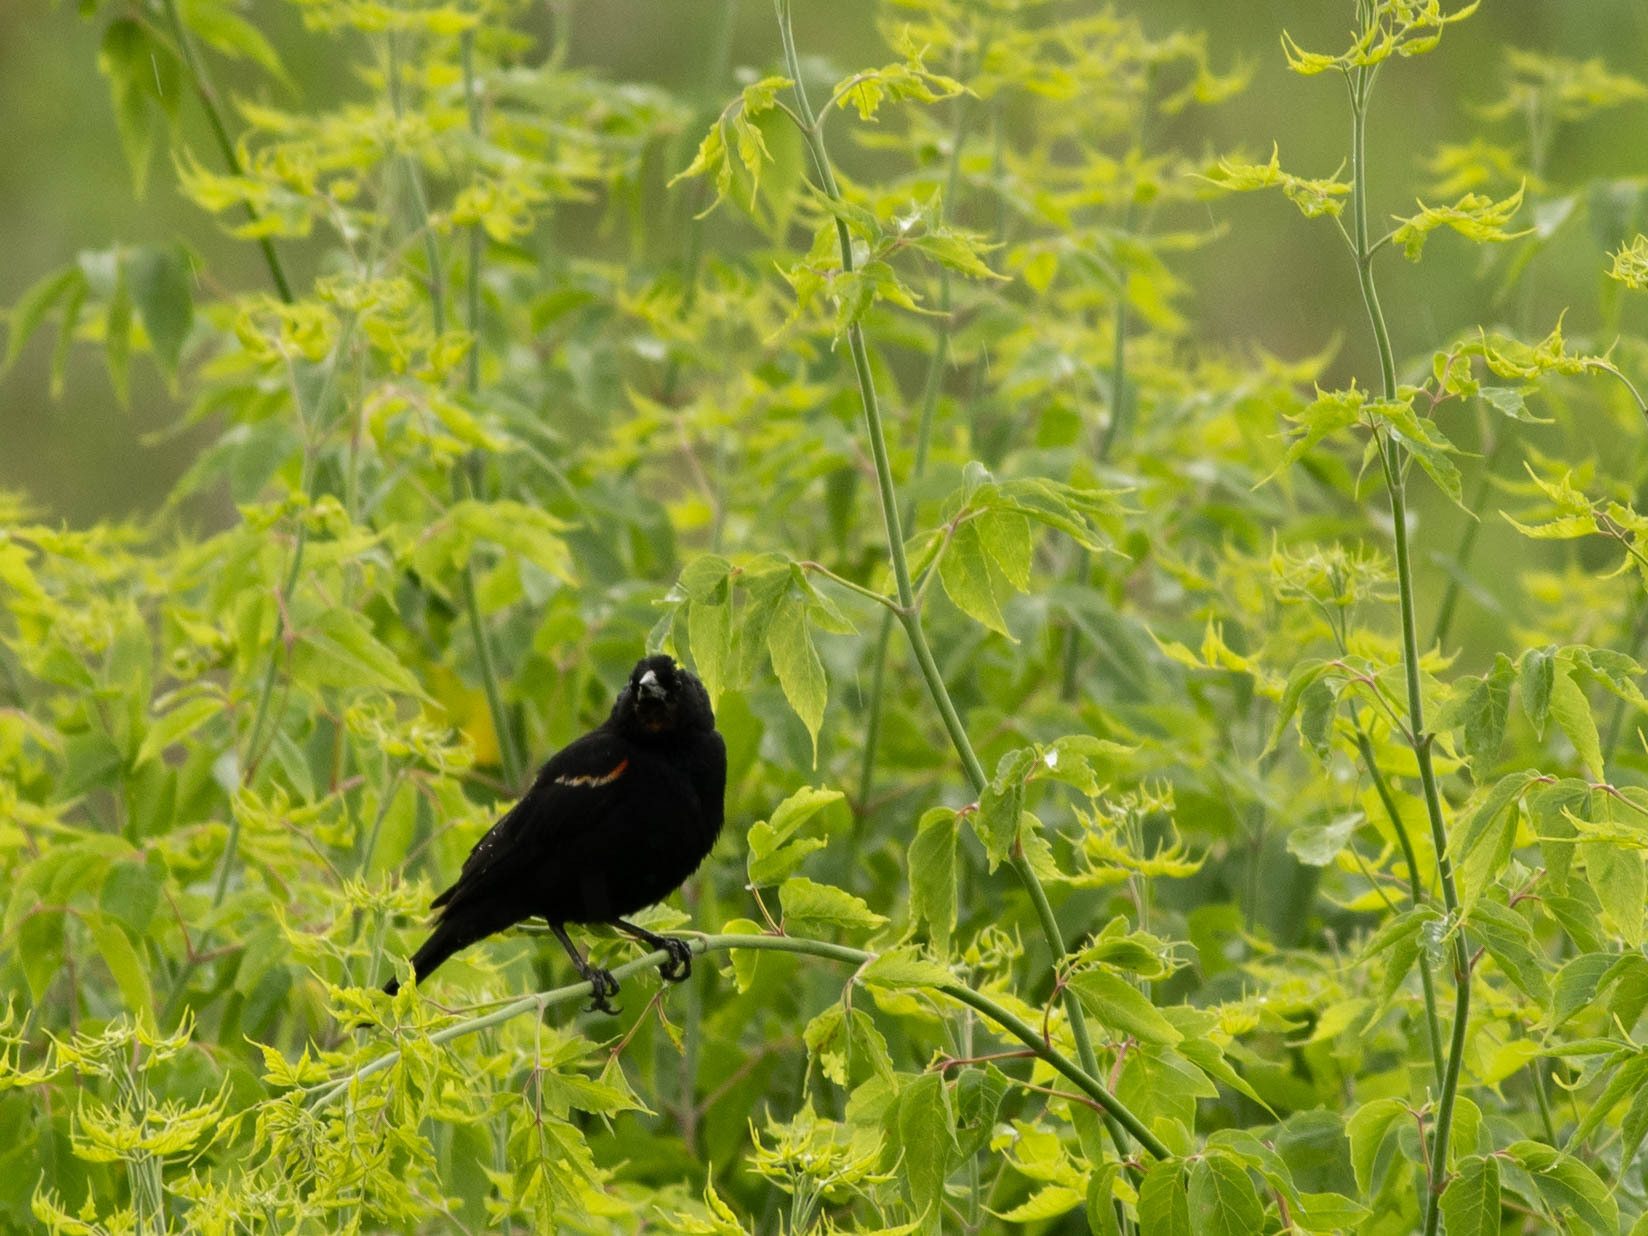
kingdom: Animalia
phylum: Chordata
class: Aves
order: Passeriformes
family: Icteridae
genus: Agelaius
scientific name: Agelaius phoeniceus
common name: Red-winged blackbird
